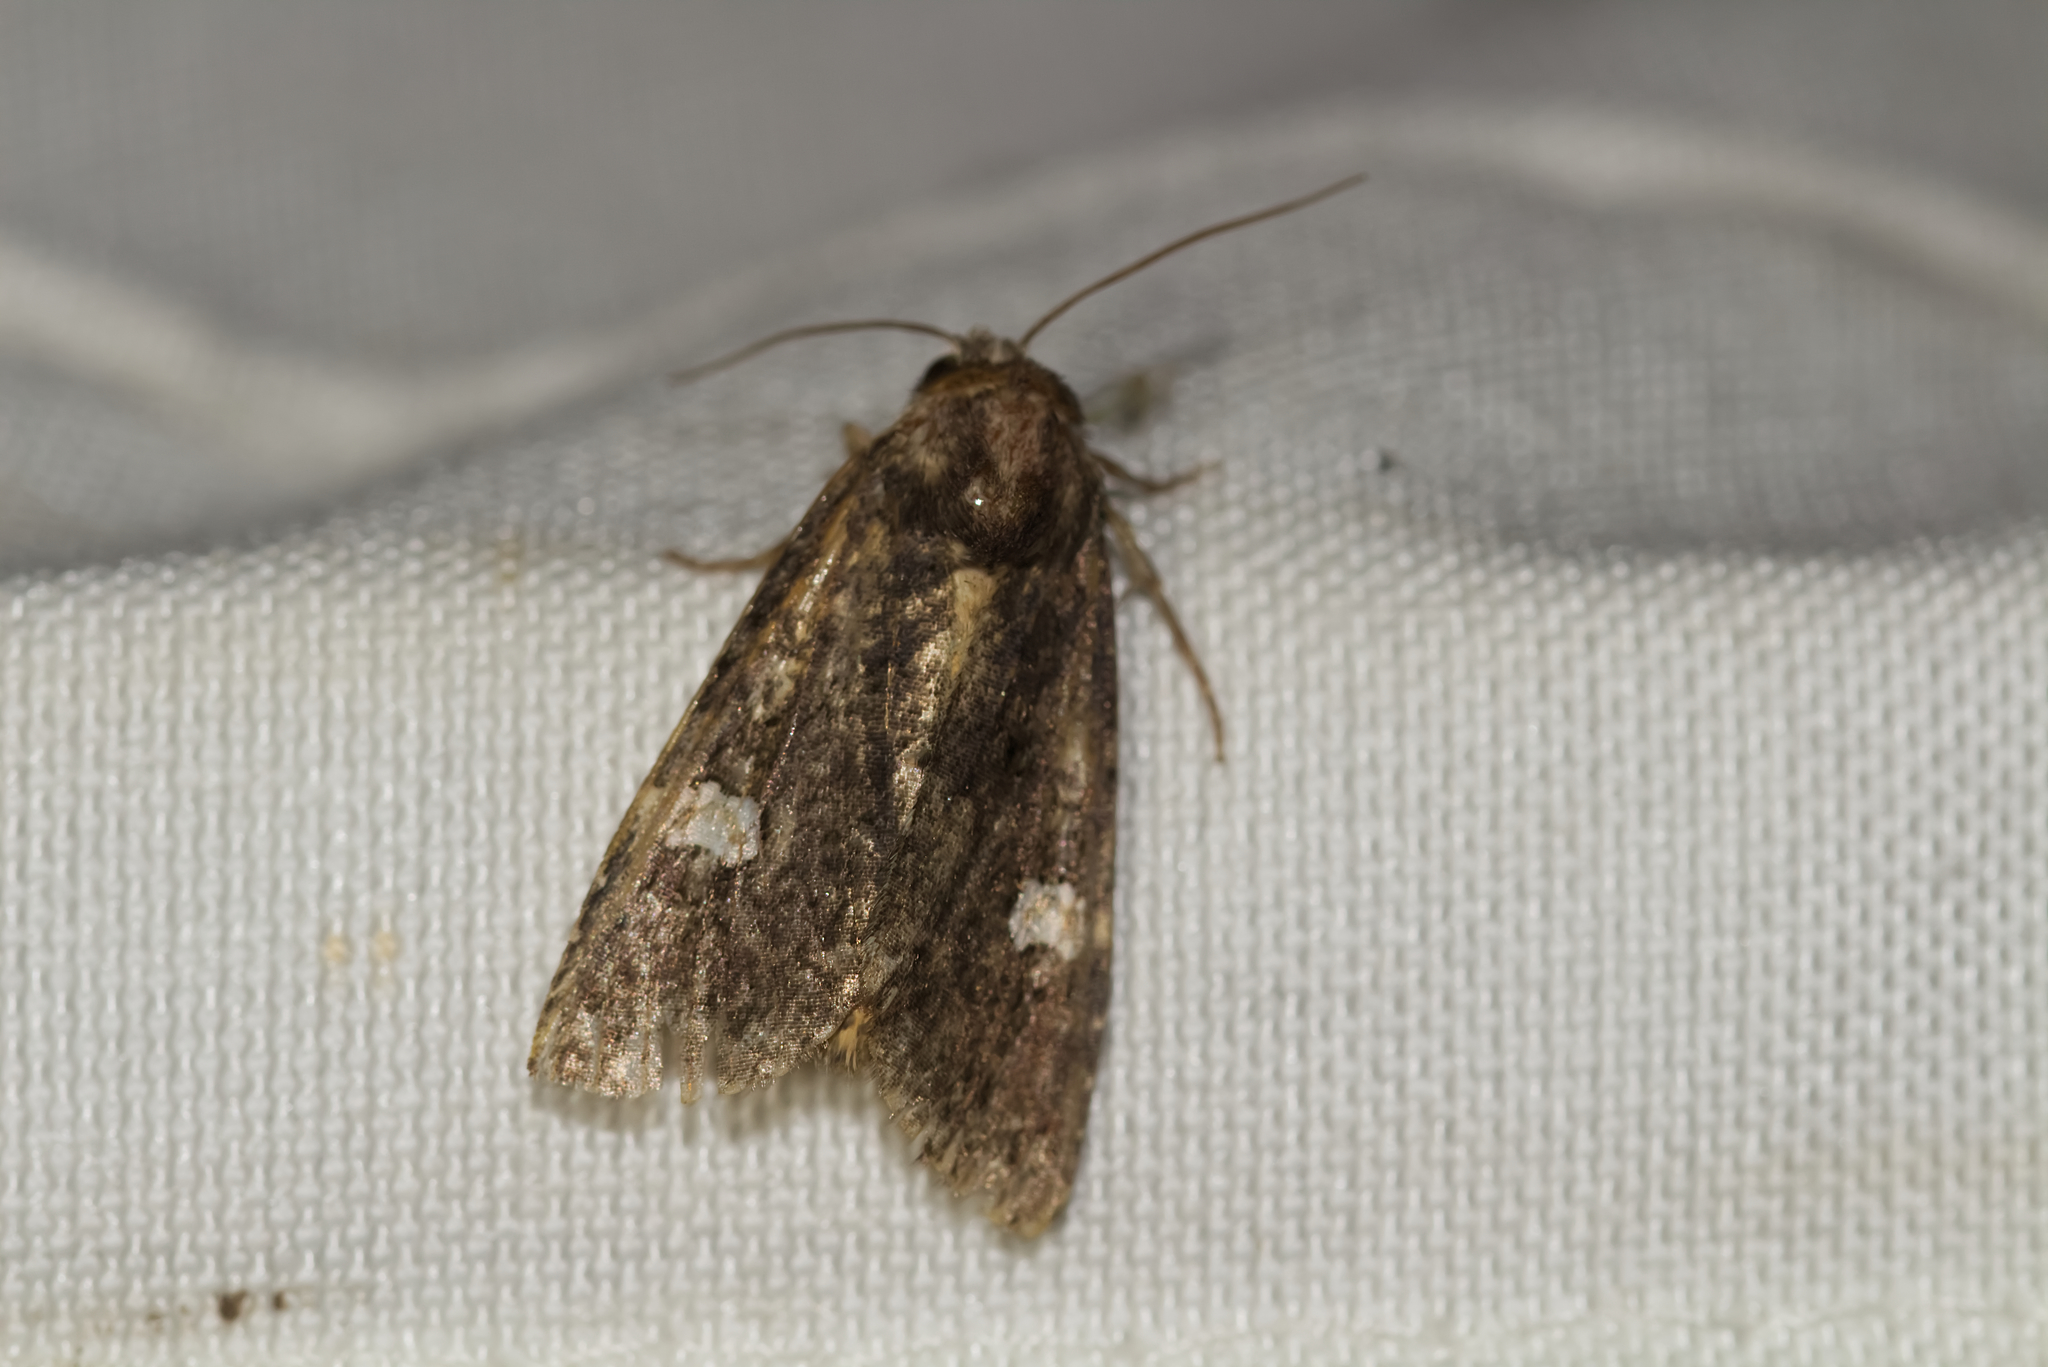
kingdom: Animalia
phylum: Arthropoda
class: Insecta
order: Lepidoptera
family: Noctuidae
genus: Melanchra
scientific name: Melanchra persicariae
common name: Dot moth
